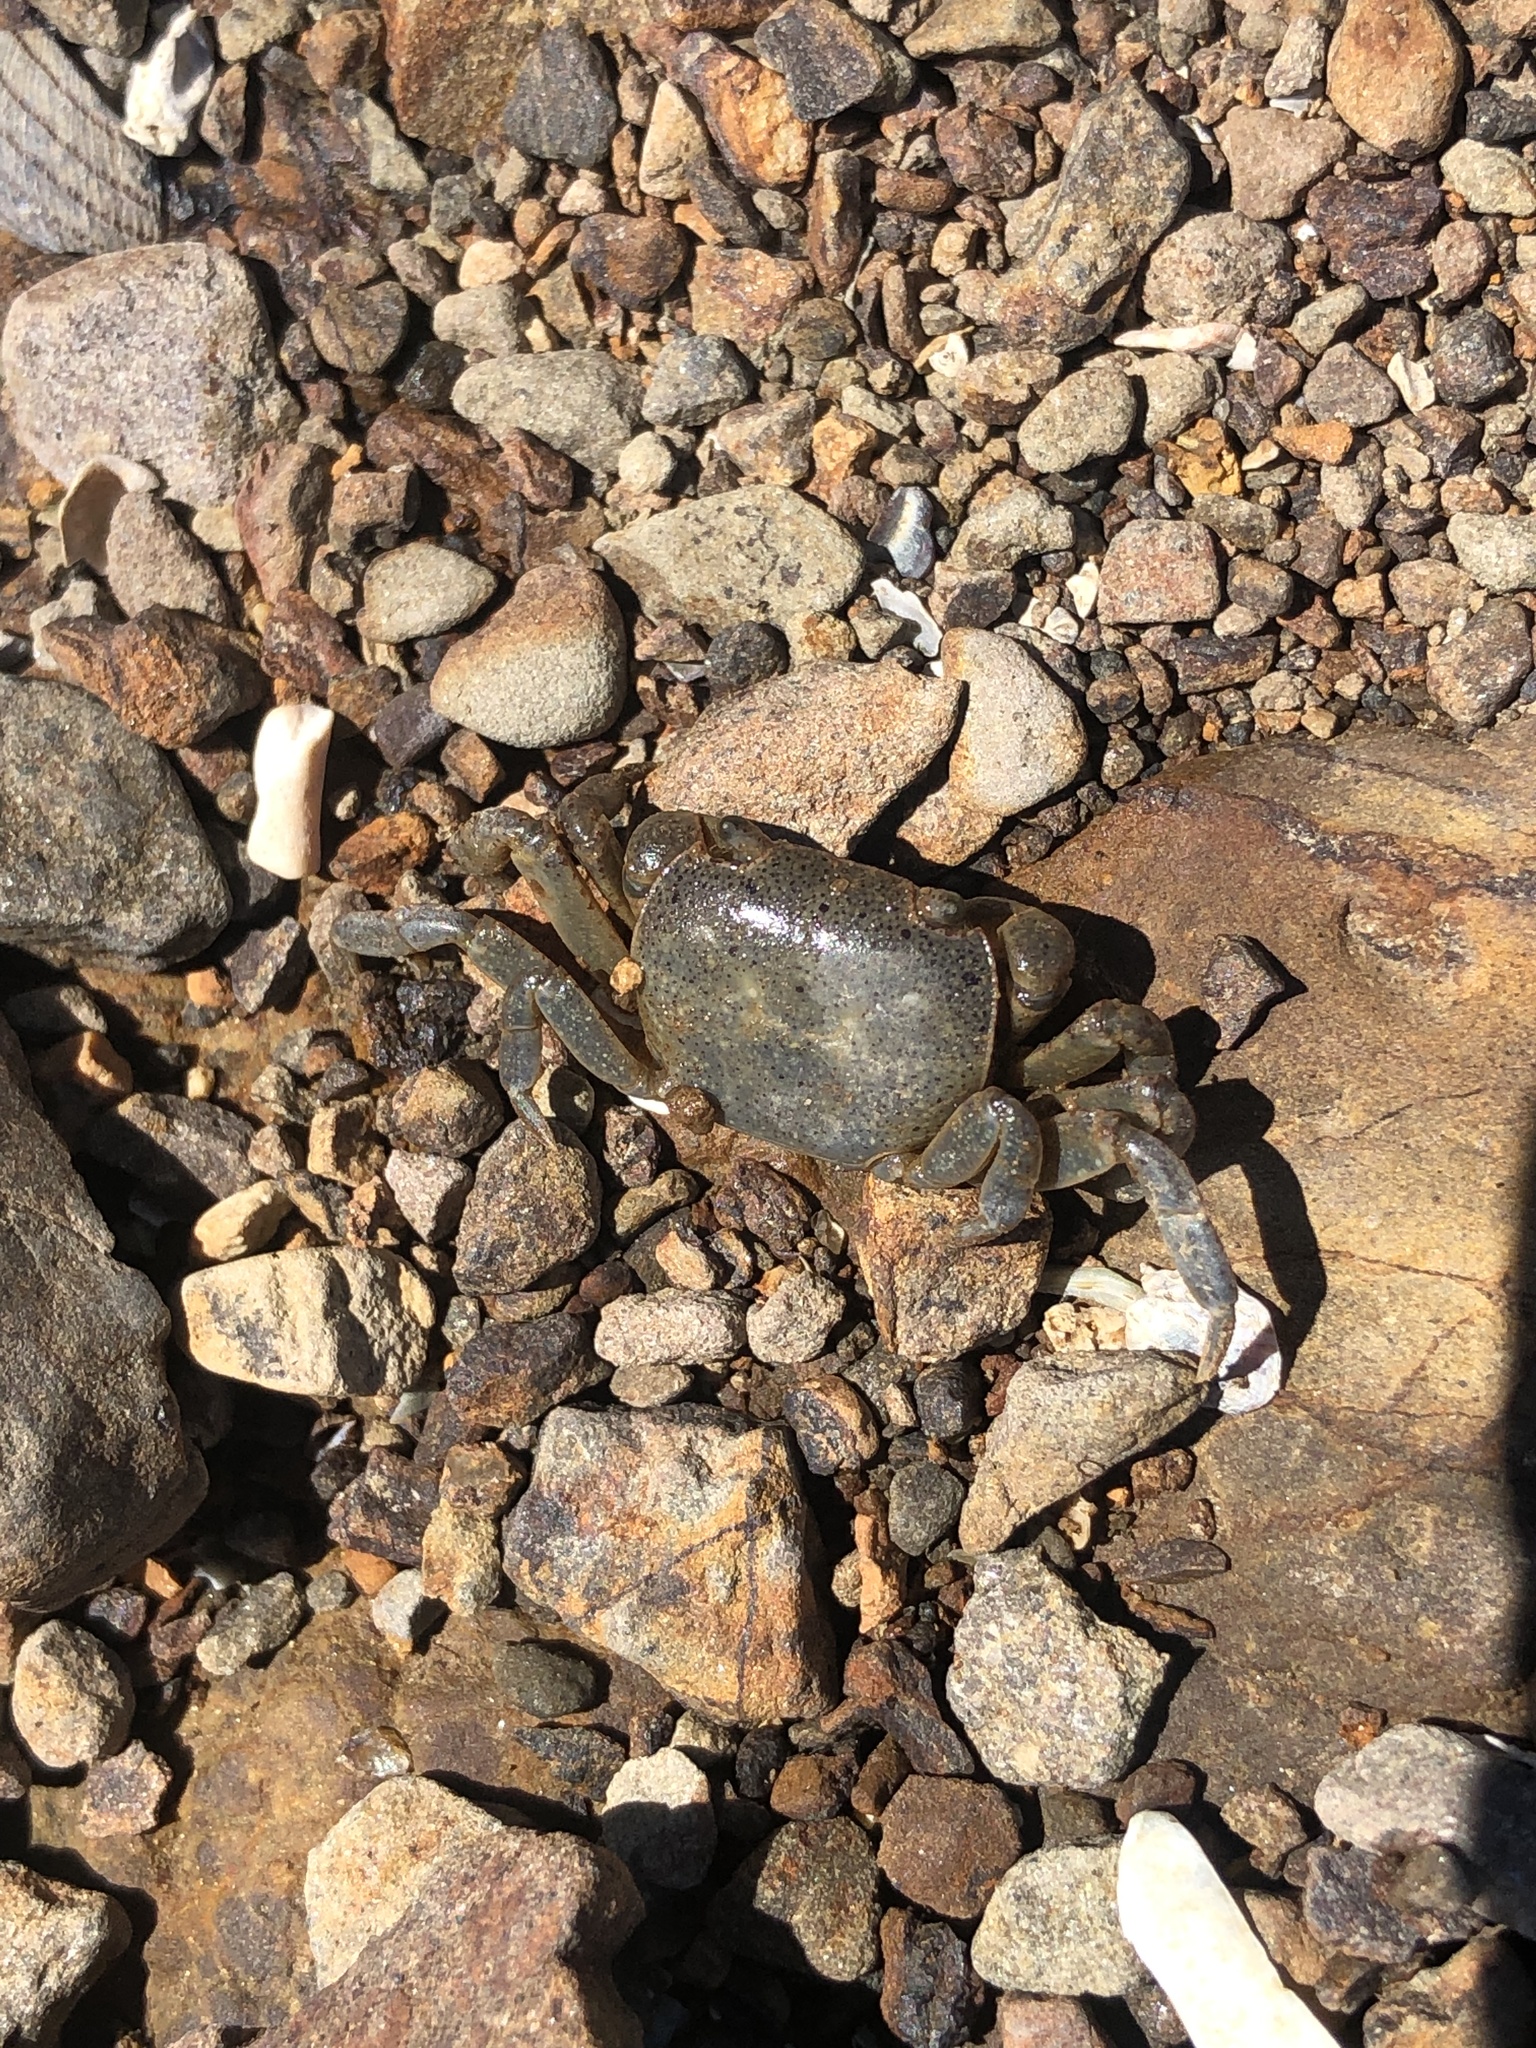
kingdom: Animalia
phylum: Arthropoda
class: Malacostraca
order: Decapoda
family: Varunidae
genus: Cyclograpsus
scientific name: Cyclograpsus lavauxi
